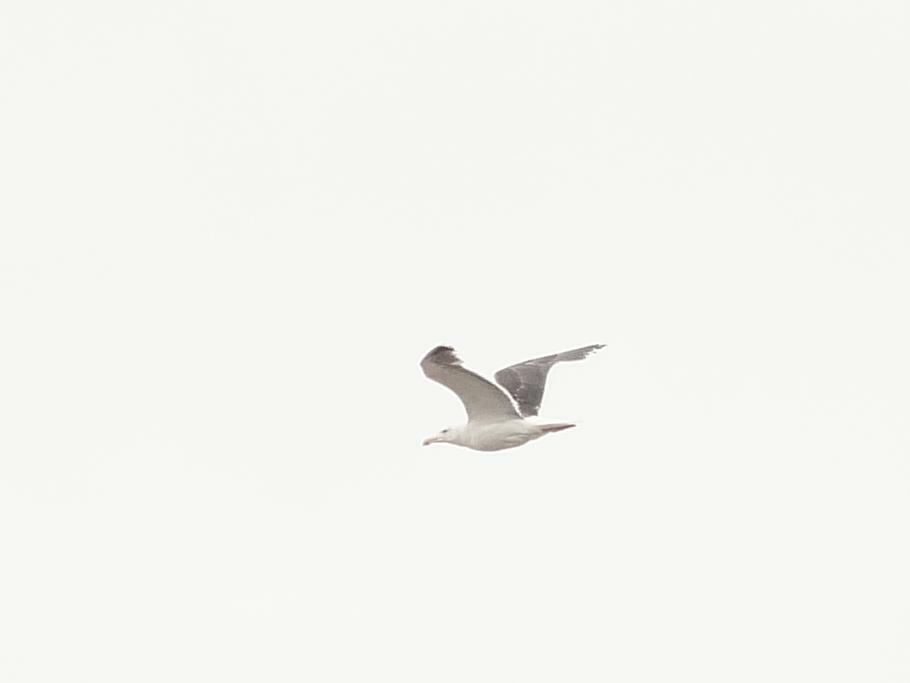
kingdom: Animalia
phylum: Chordata
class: Aves
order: Charadriiformes
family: Laridae
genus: Larus
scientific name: Larus marinus
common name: Great black-backed gull
